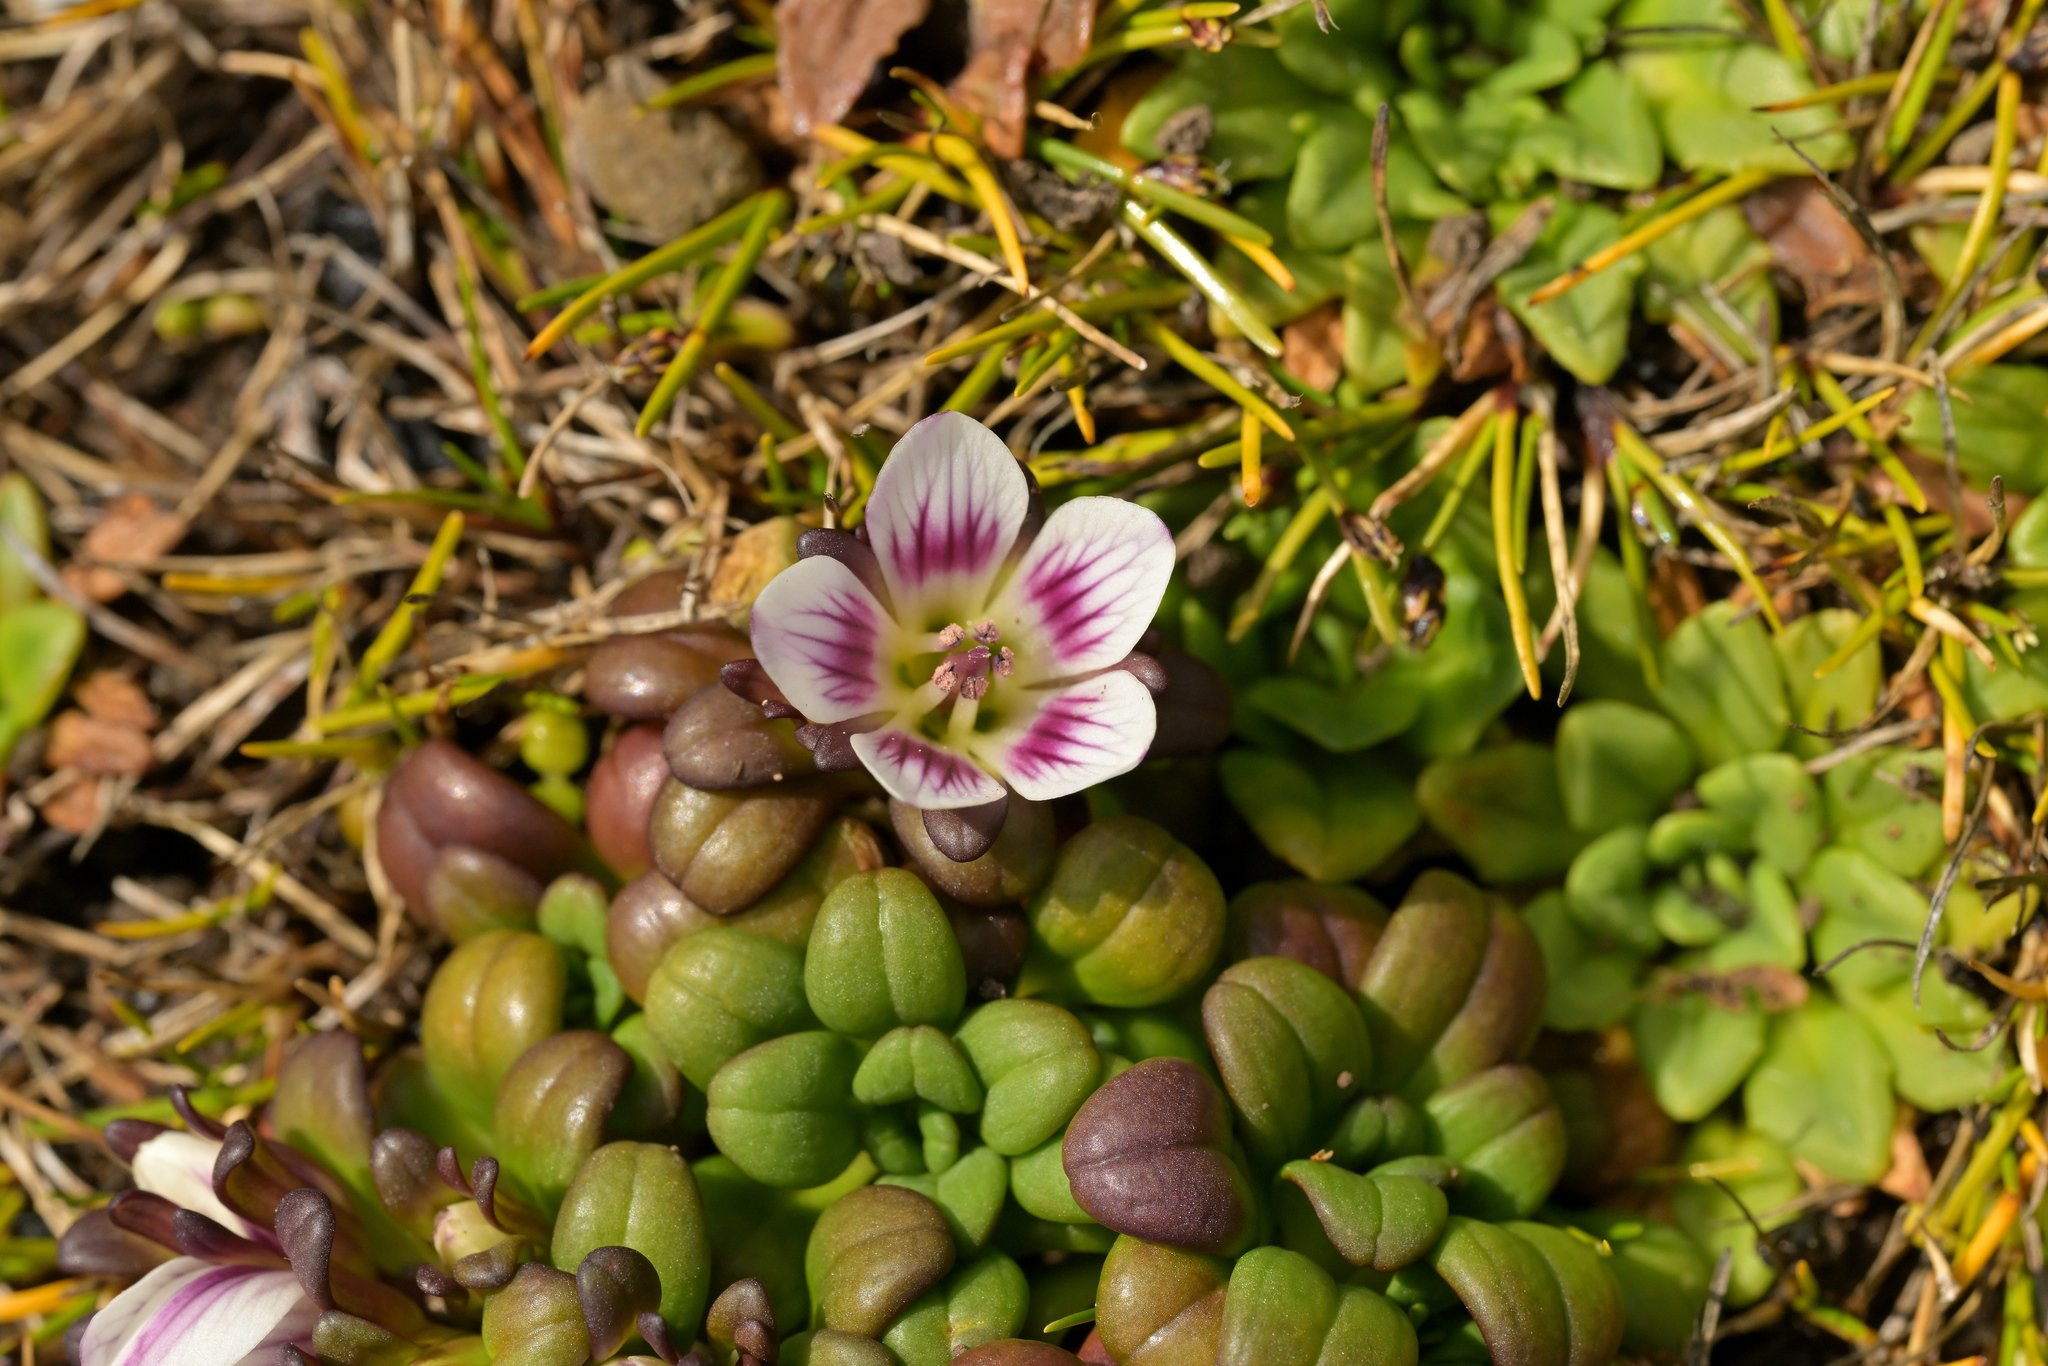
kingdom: Plantae
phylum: Tracheophyta
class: Magnoliopsida
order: Gentianales
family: Gentianaceae
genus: Gentianella
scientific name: Gentianella cerina
